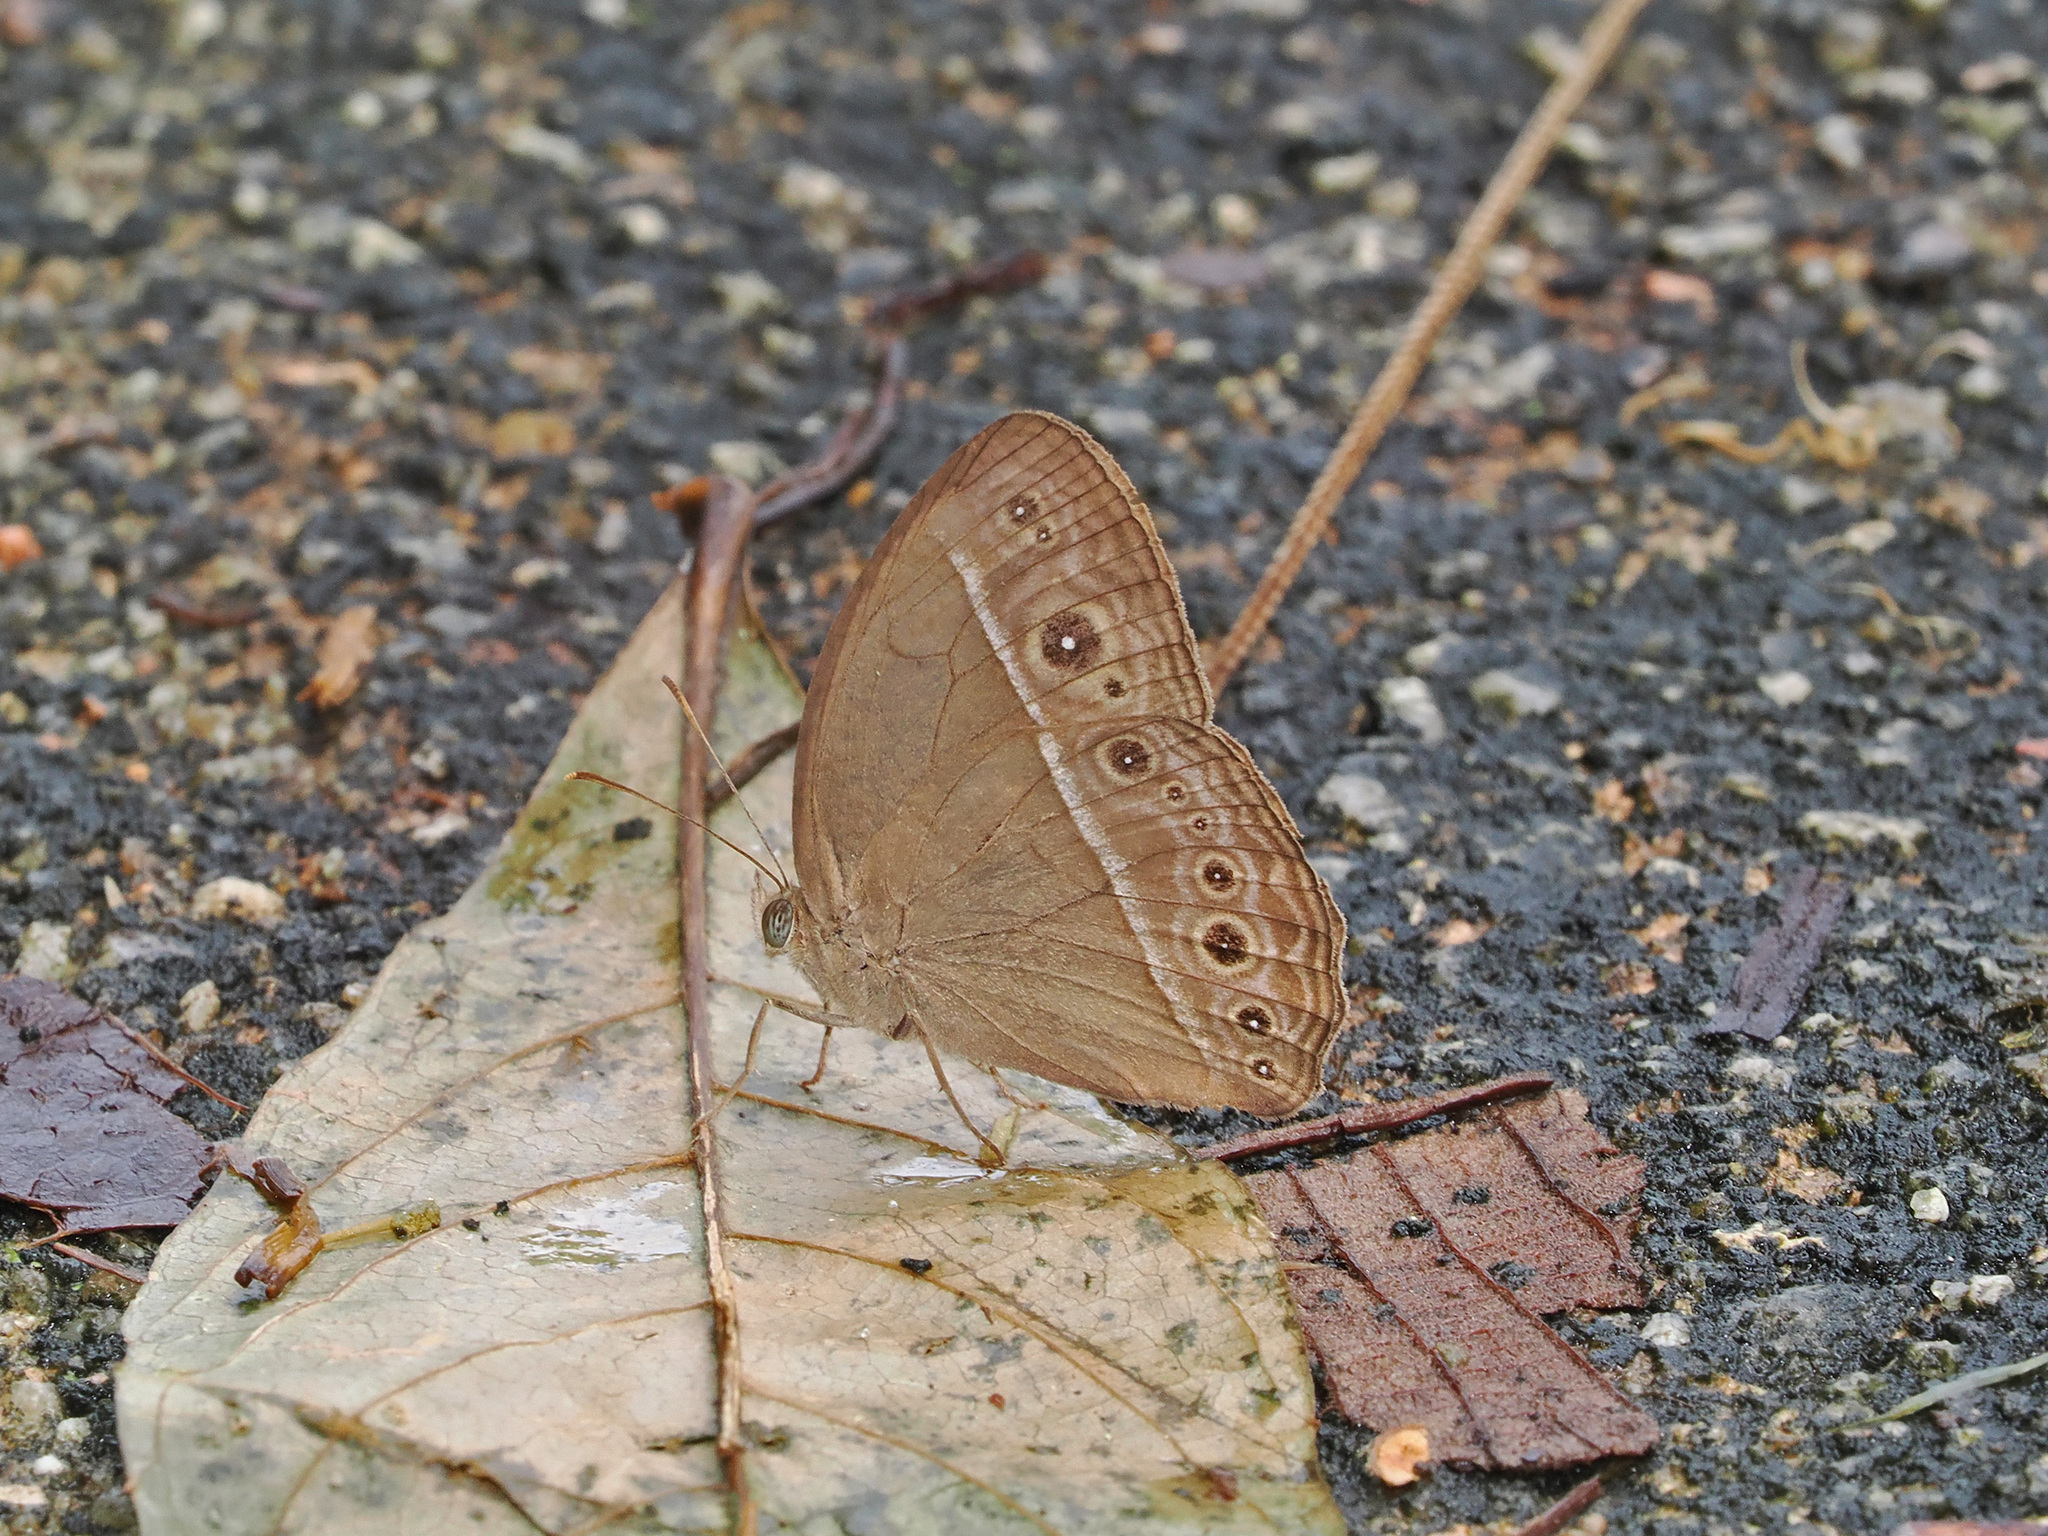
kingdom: Animalia
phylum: Arthropoda
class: Insecta
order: Lepidoptera
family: Nymphalidae
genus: Mycalesis
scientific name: Mycalesis visala
